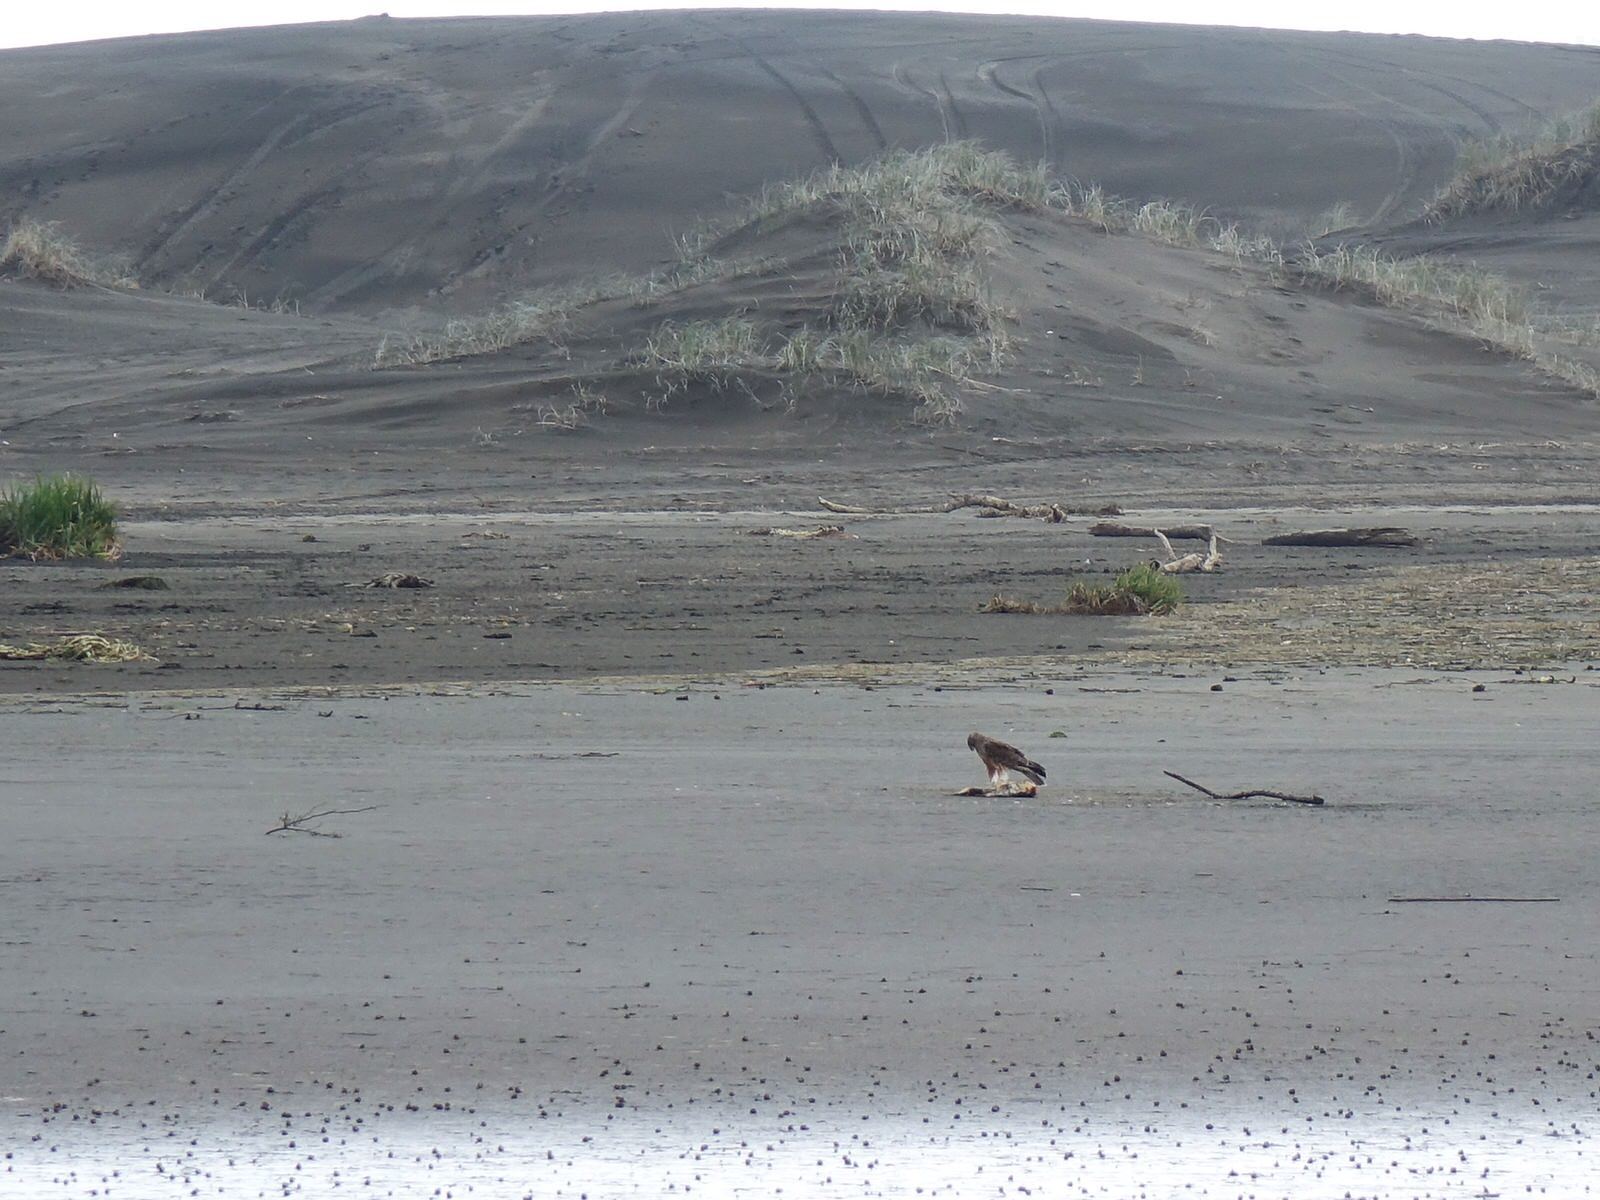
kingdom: Animalia
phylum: Chordata
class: Aves
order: Accipitriformes
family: Accipitridae
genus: Circus
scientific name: Circus approximans
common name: Swamp harrier
